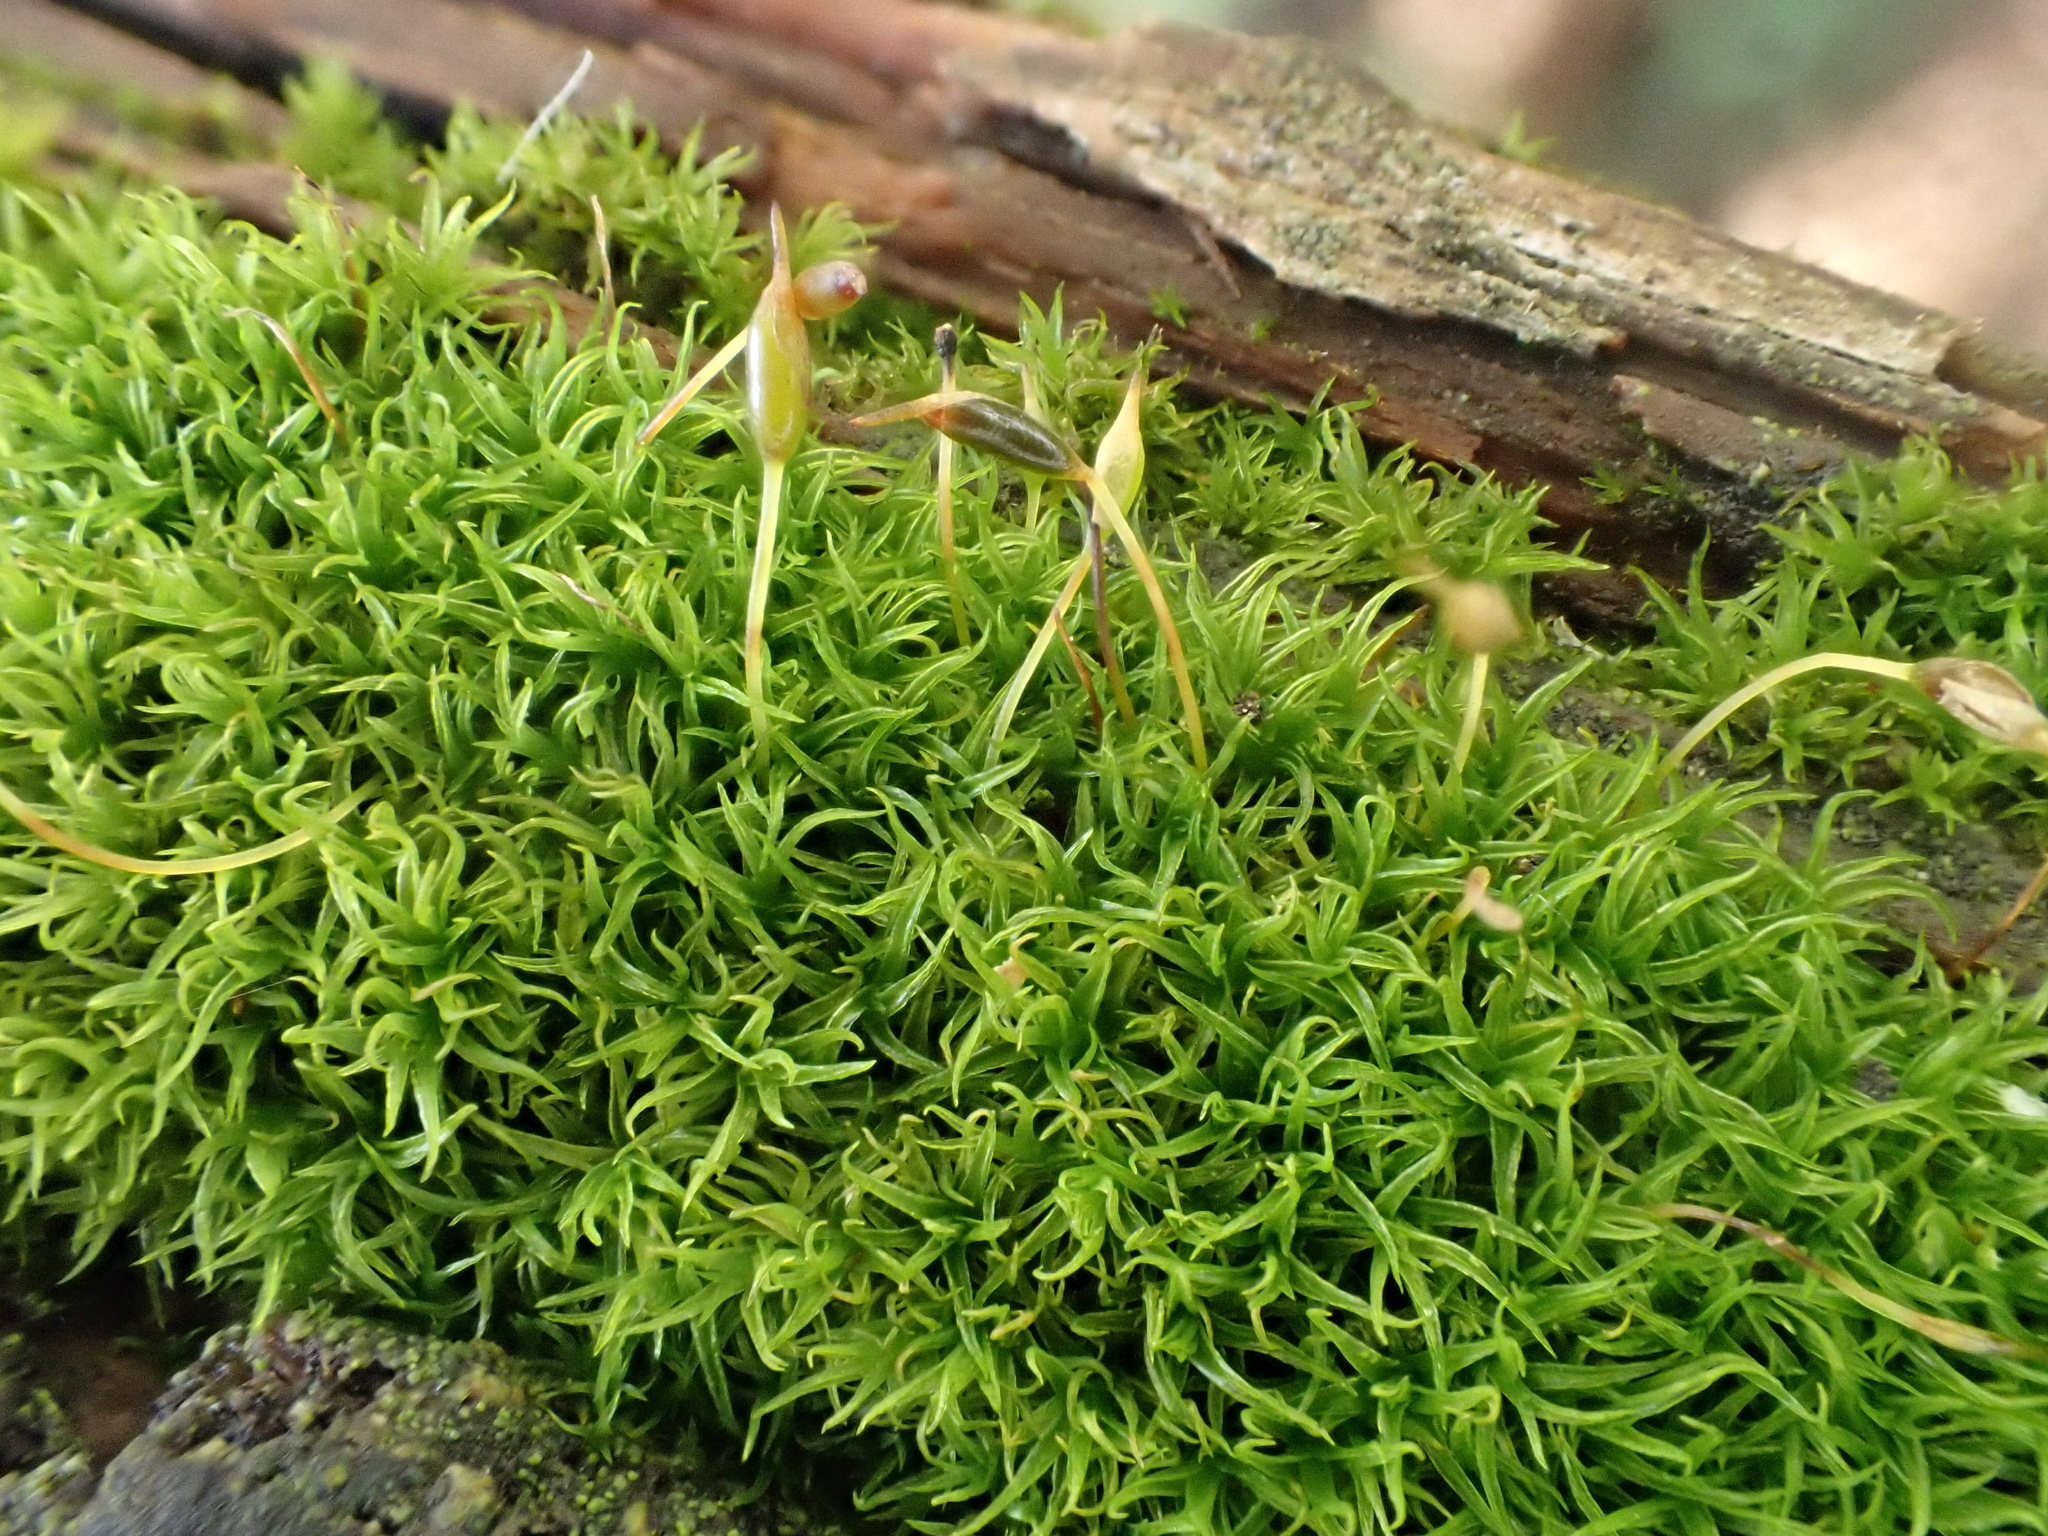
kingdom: Plantae
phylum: Bryophyta
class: Bryopsida
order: Dicranales
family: Rhabdoweisiaceae
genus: Dicranoweisia
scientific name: Dicranoweisia cirrata
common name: Common pincushion
